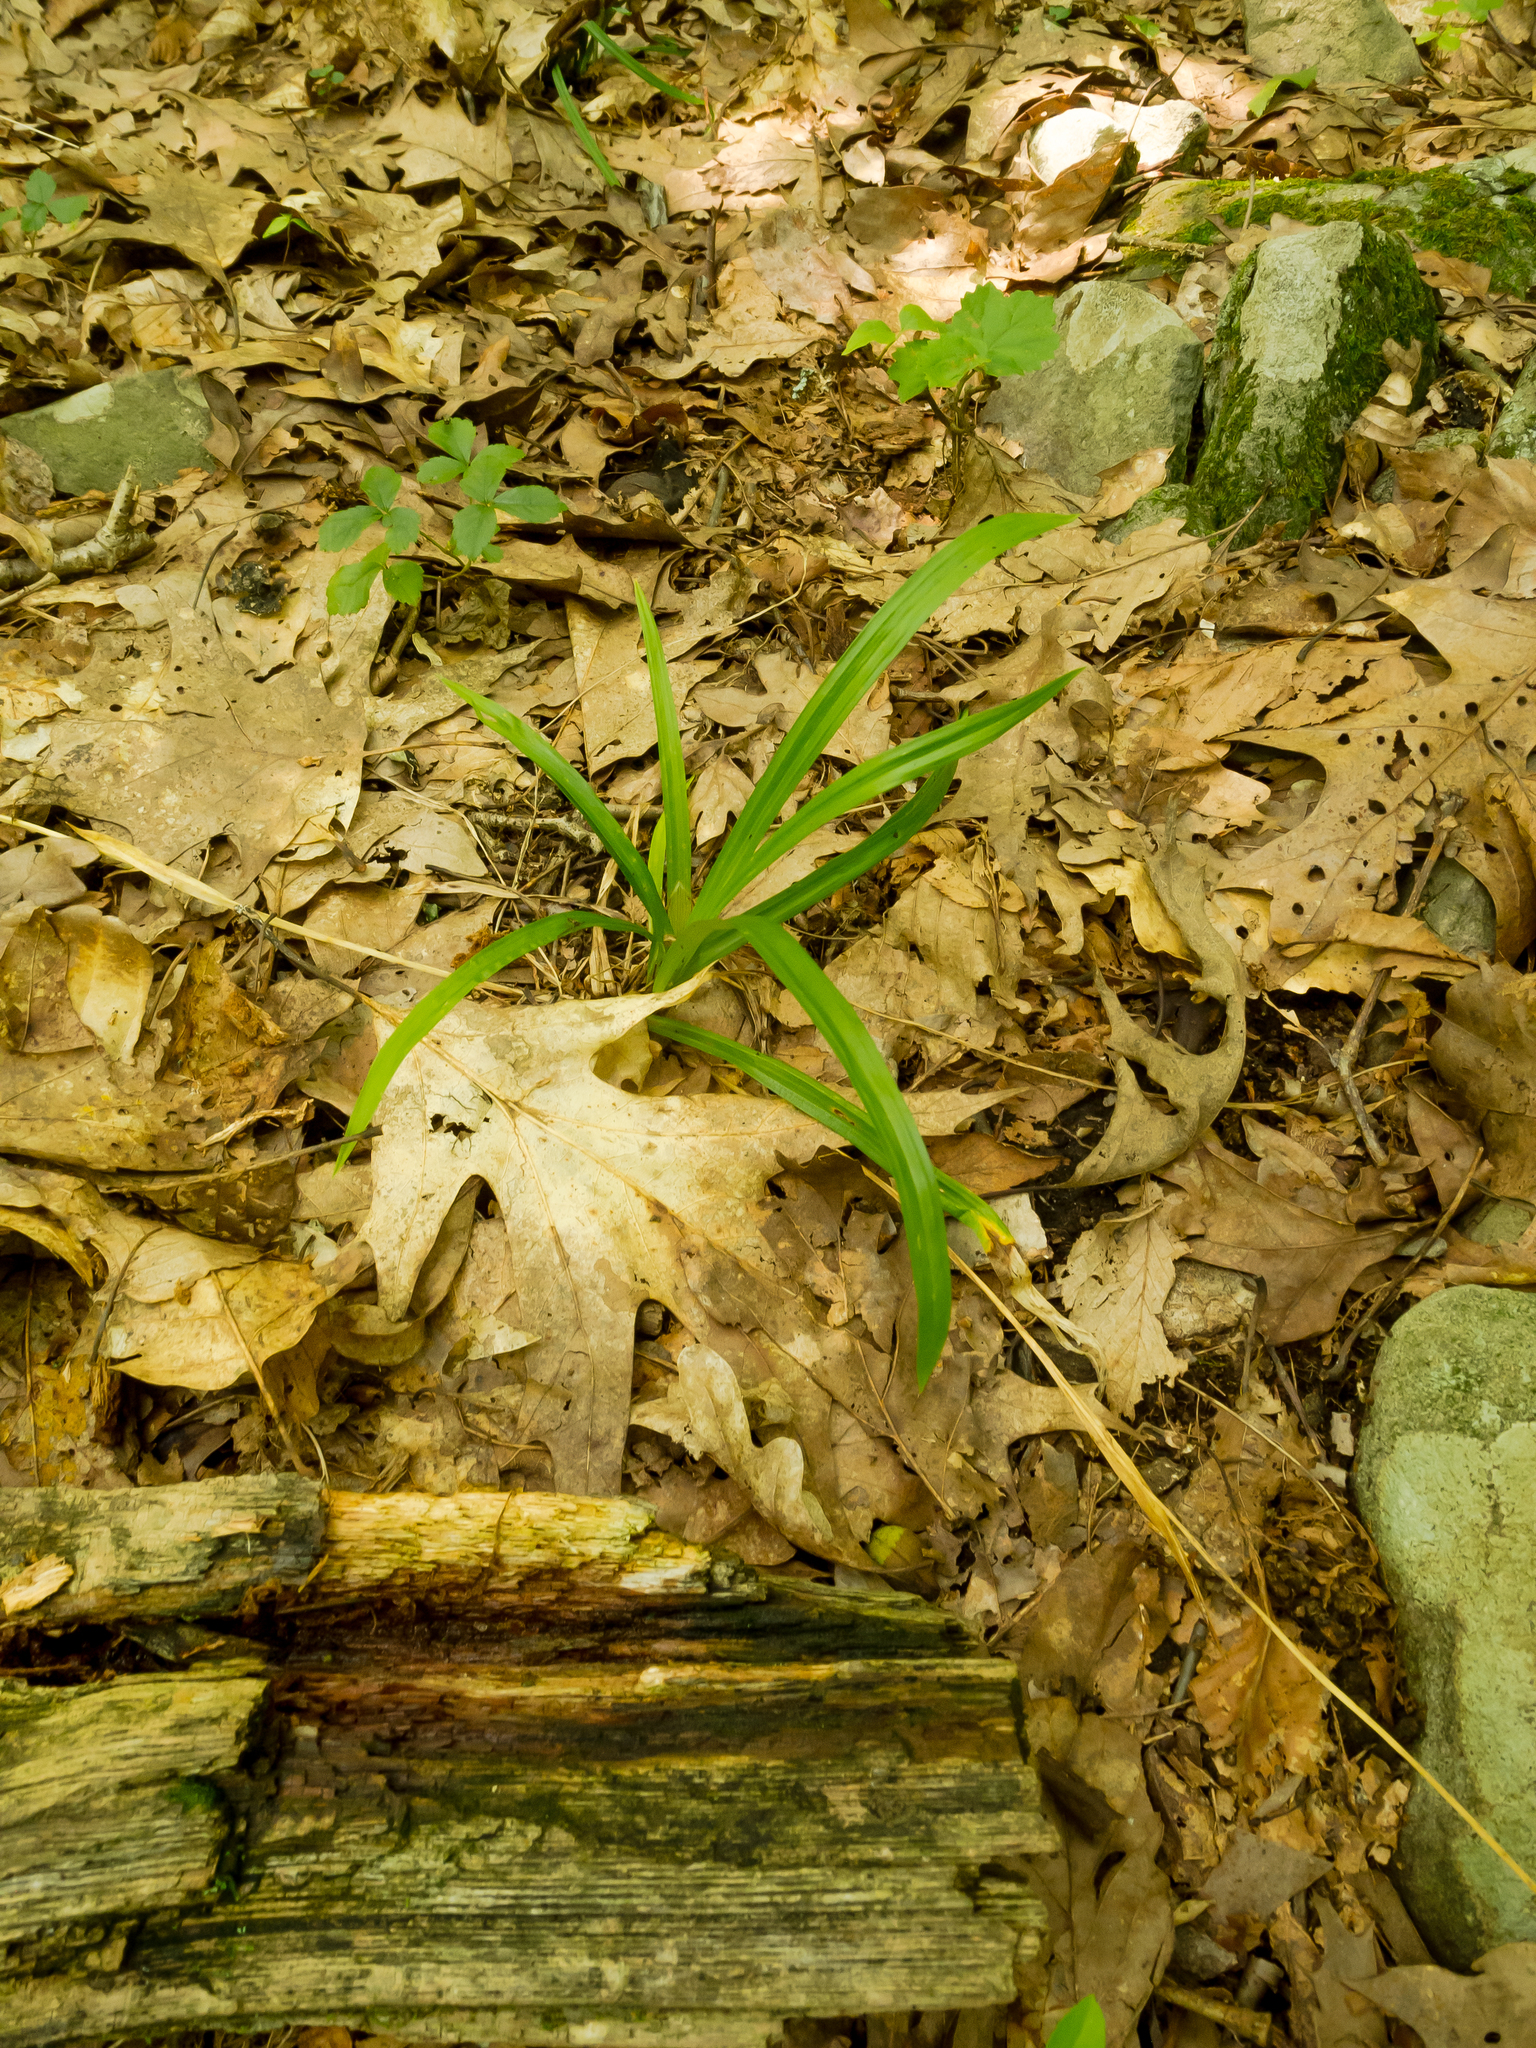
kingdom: Plantae
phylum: Tracheophyta
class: Liliopsida
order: Liliales
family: Melanthiaceae
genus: Amianthium
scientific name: Amianthium muscitoxicum
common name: Fly-poison
